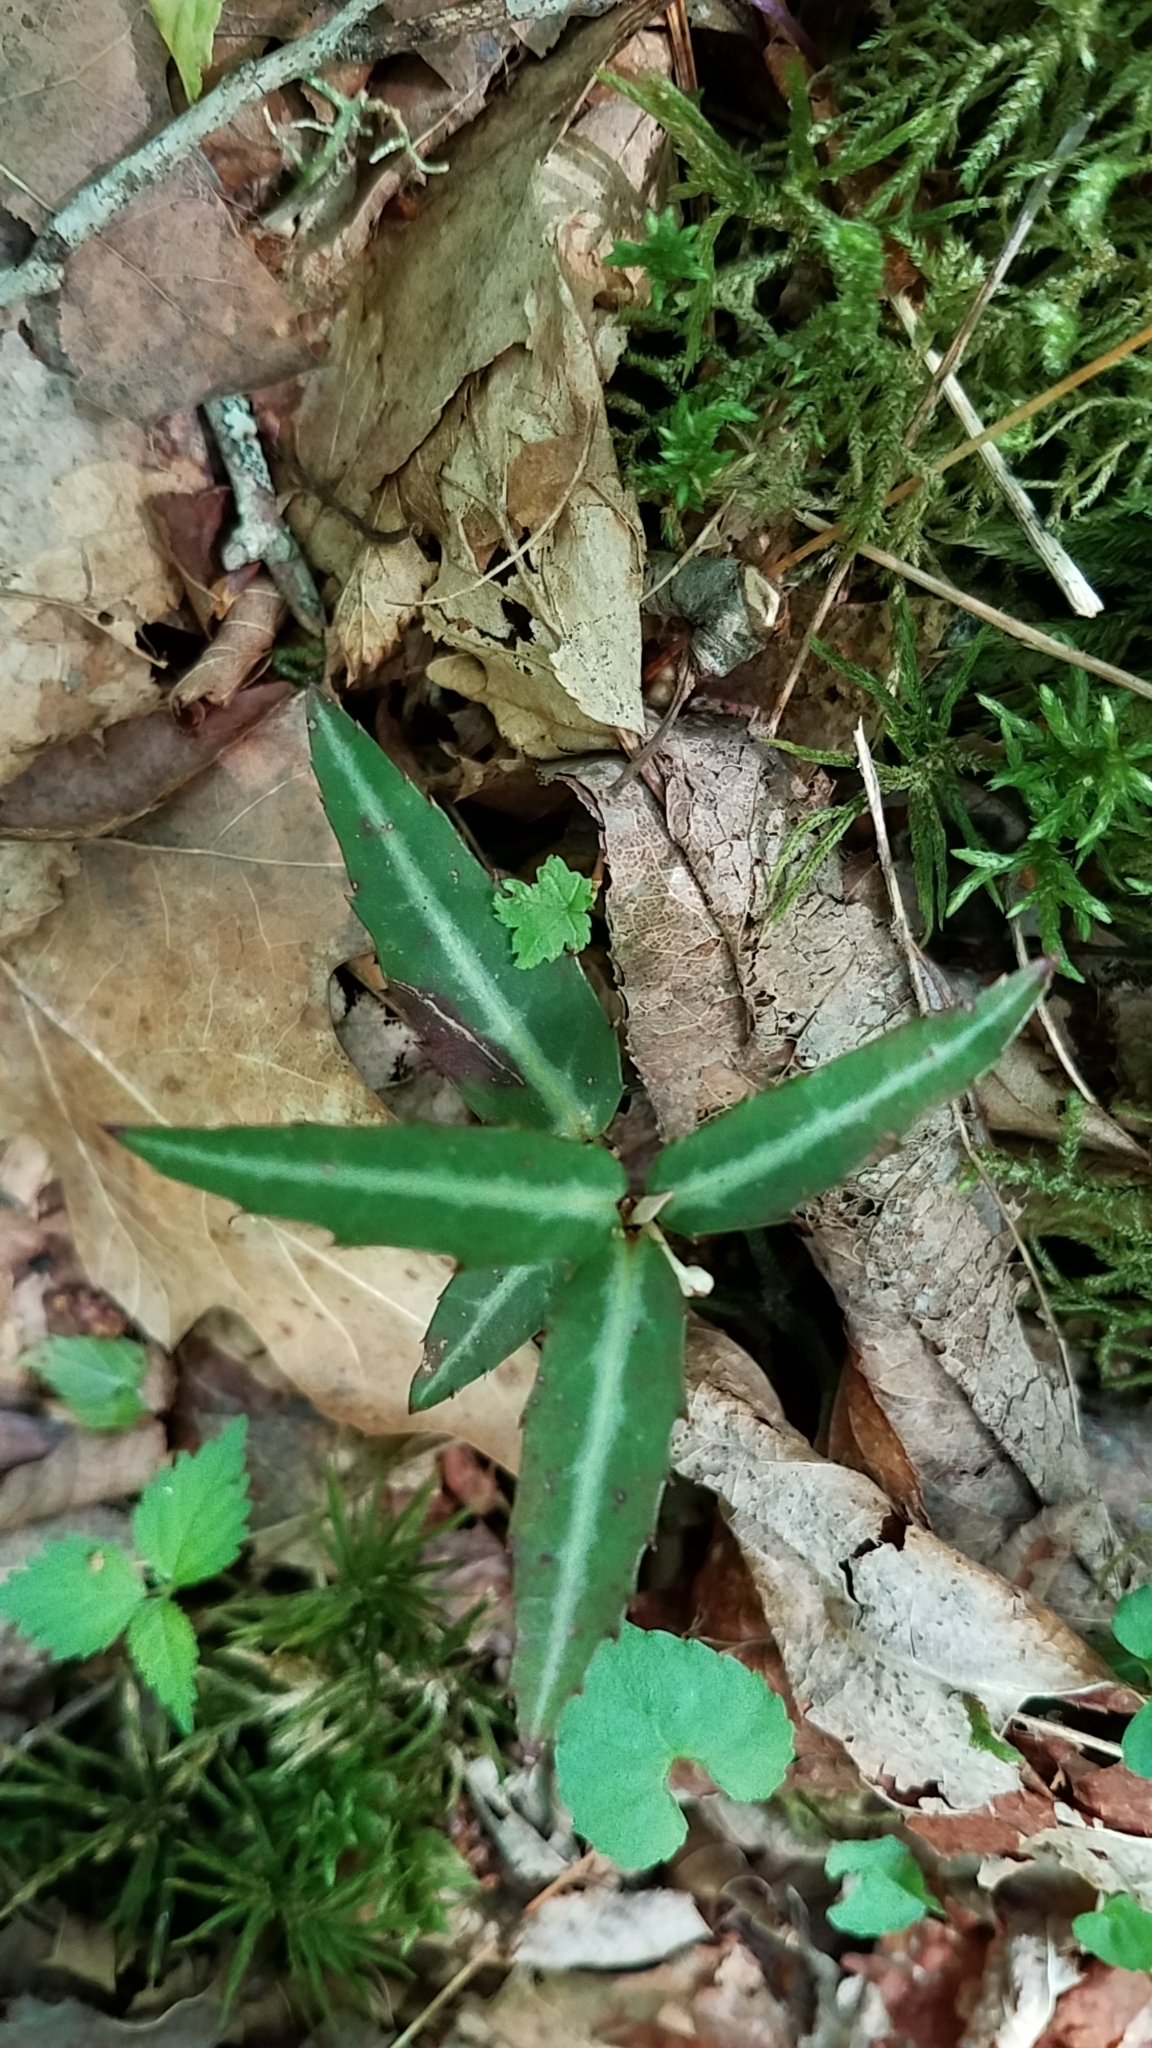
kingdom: Plantae
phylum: Tracheophyta
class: Magnoliopsida
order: Ericales
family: Ericaceae
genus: Chimaphila
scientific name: Chimaphila maculata
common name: Spotted pipsissewa
